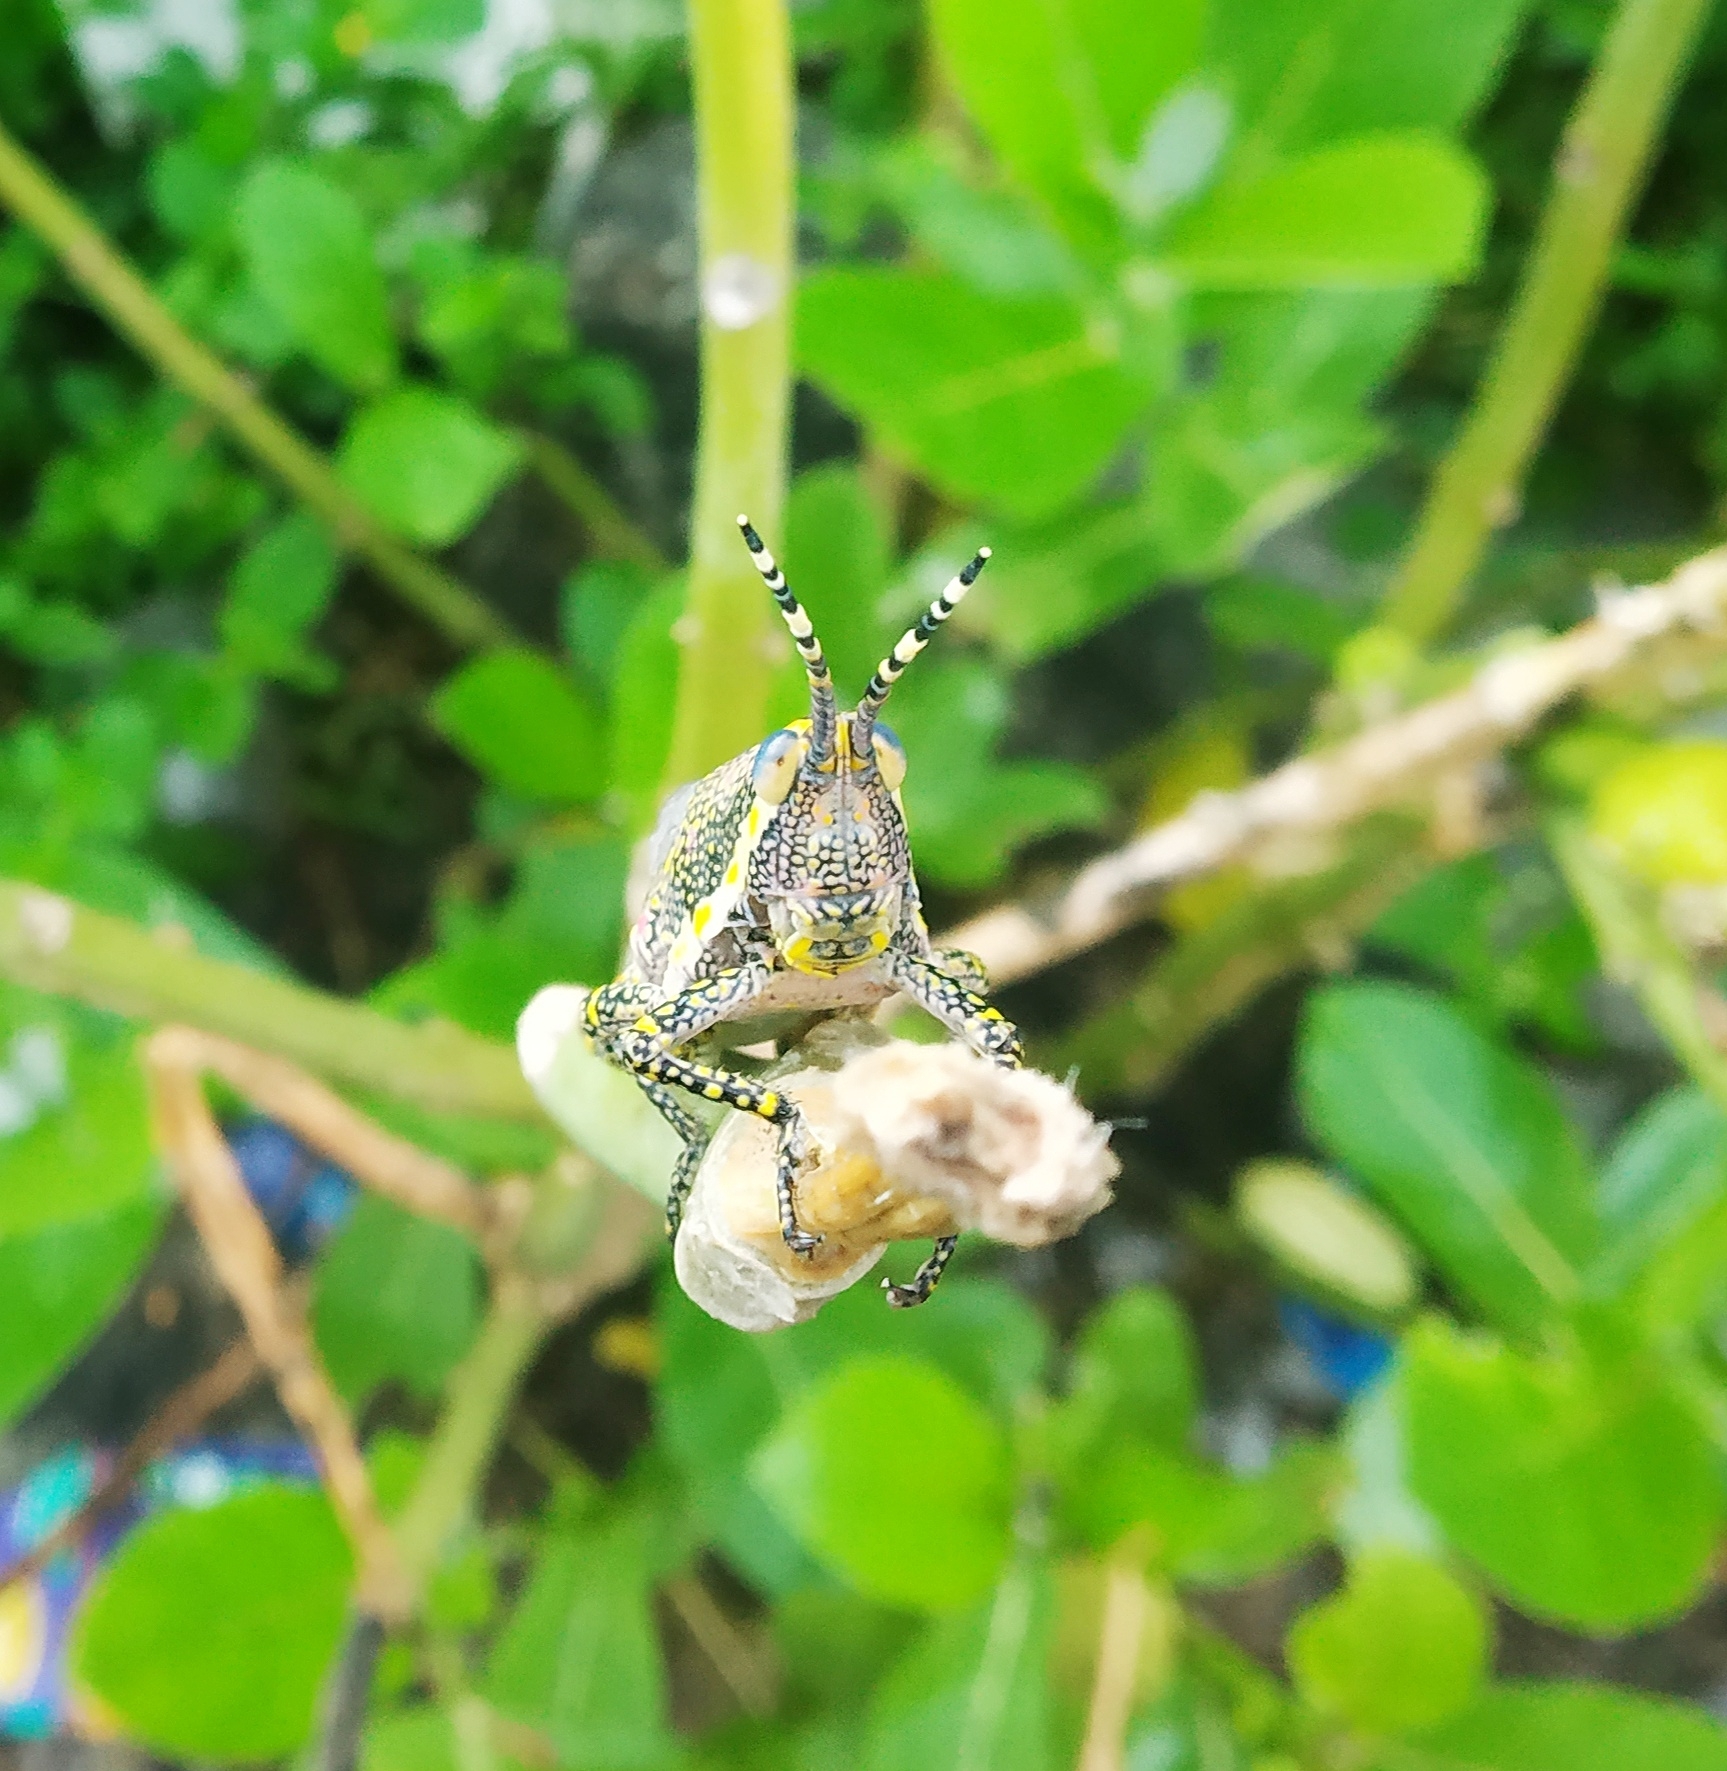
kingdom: Animalia
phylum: Arthropoda
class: Insecta
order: Orthoptera
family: Pyrgomorphidae
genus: Poekilocerus
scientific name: Poekilocerus pictus
